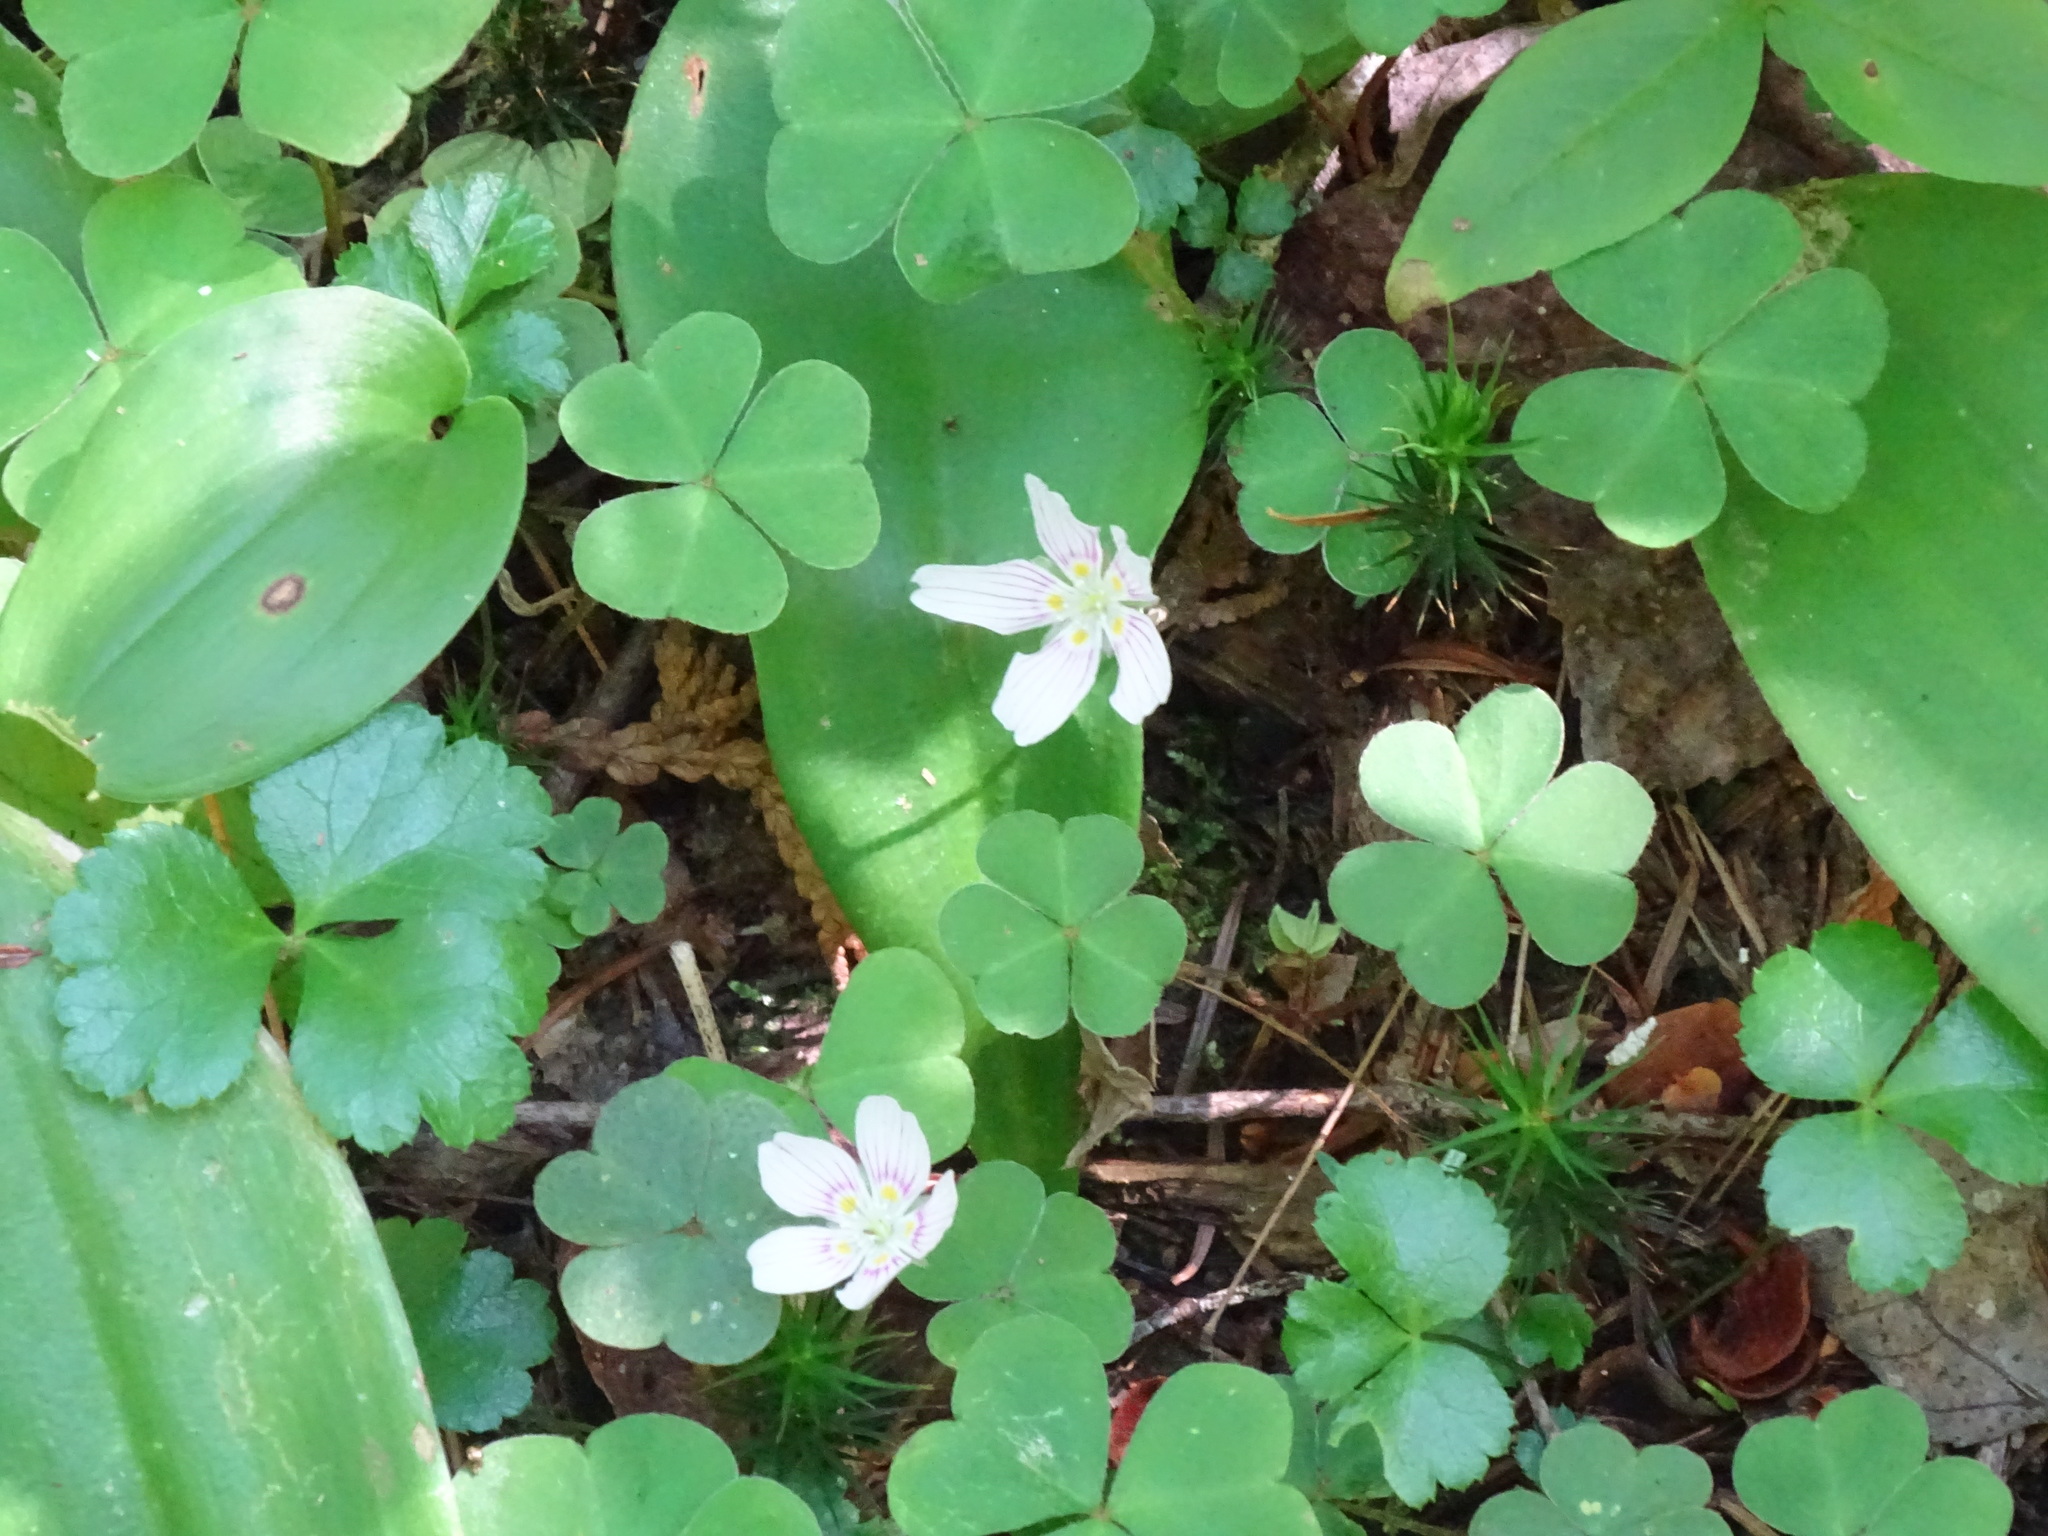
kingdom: Plantae
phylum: Tracheophyta
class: Magnoliopsida
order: Oxalidales
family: Oxalidaceae
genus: Oxalis
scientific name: Oxalis montana
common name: American wood-sorrel
